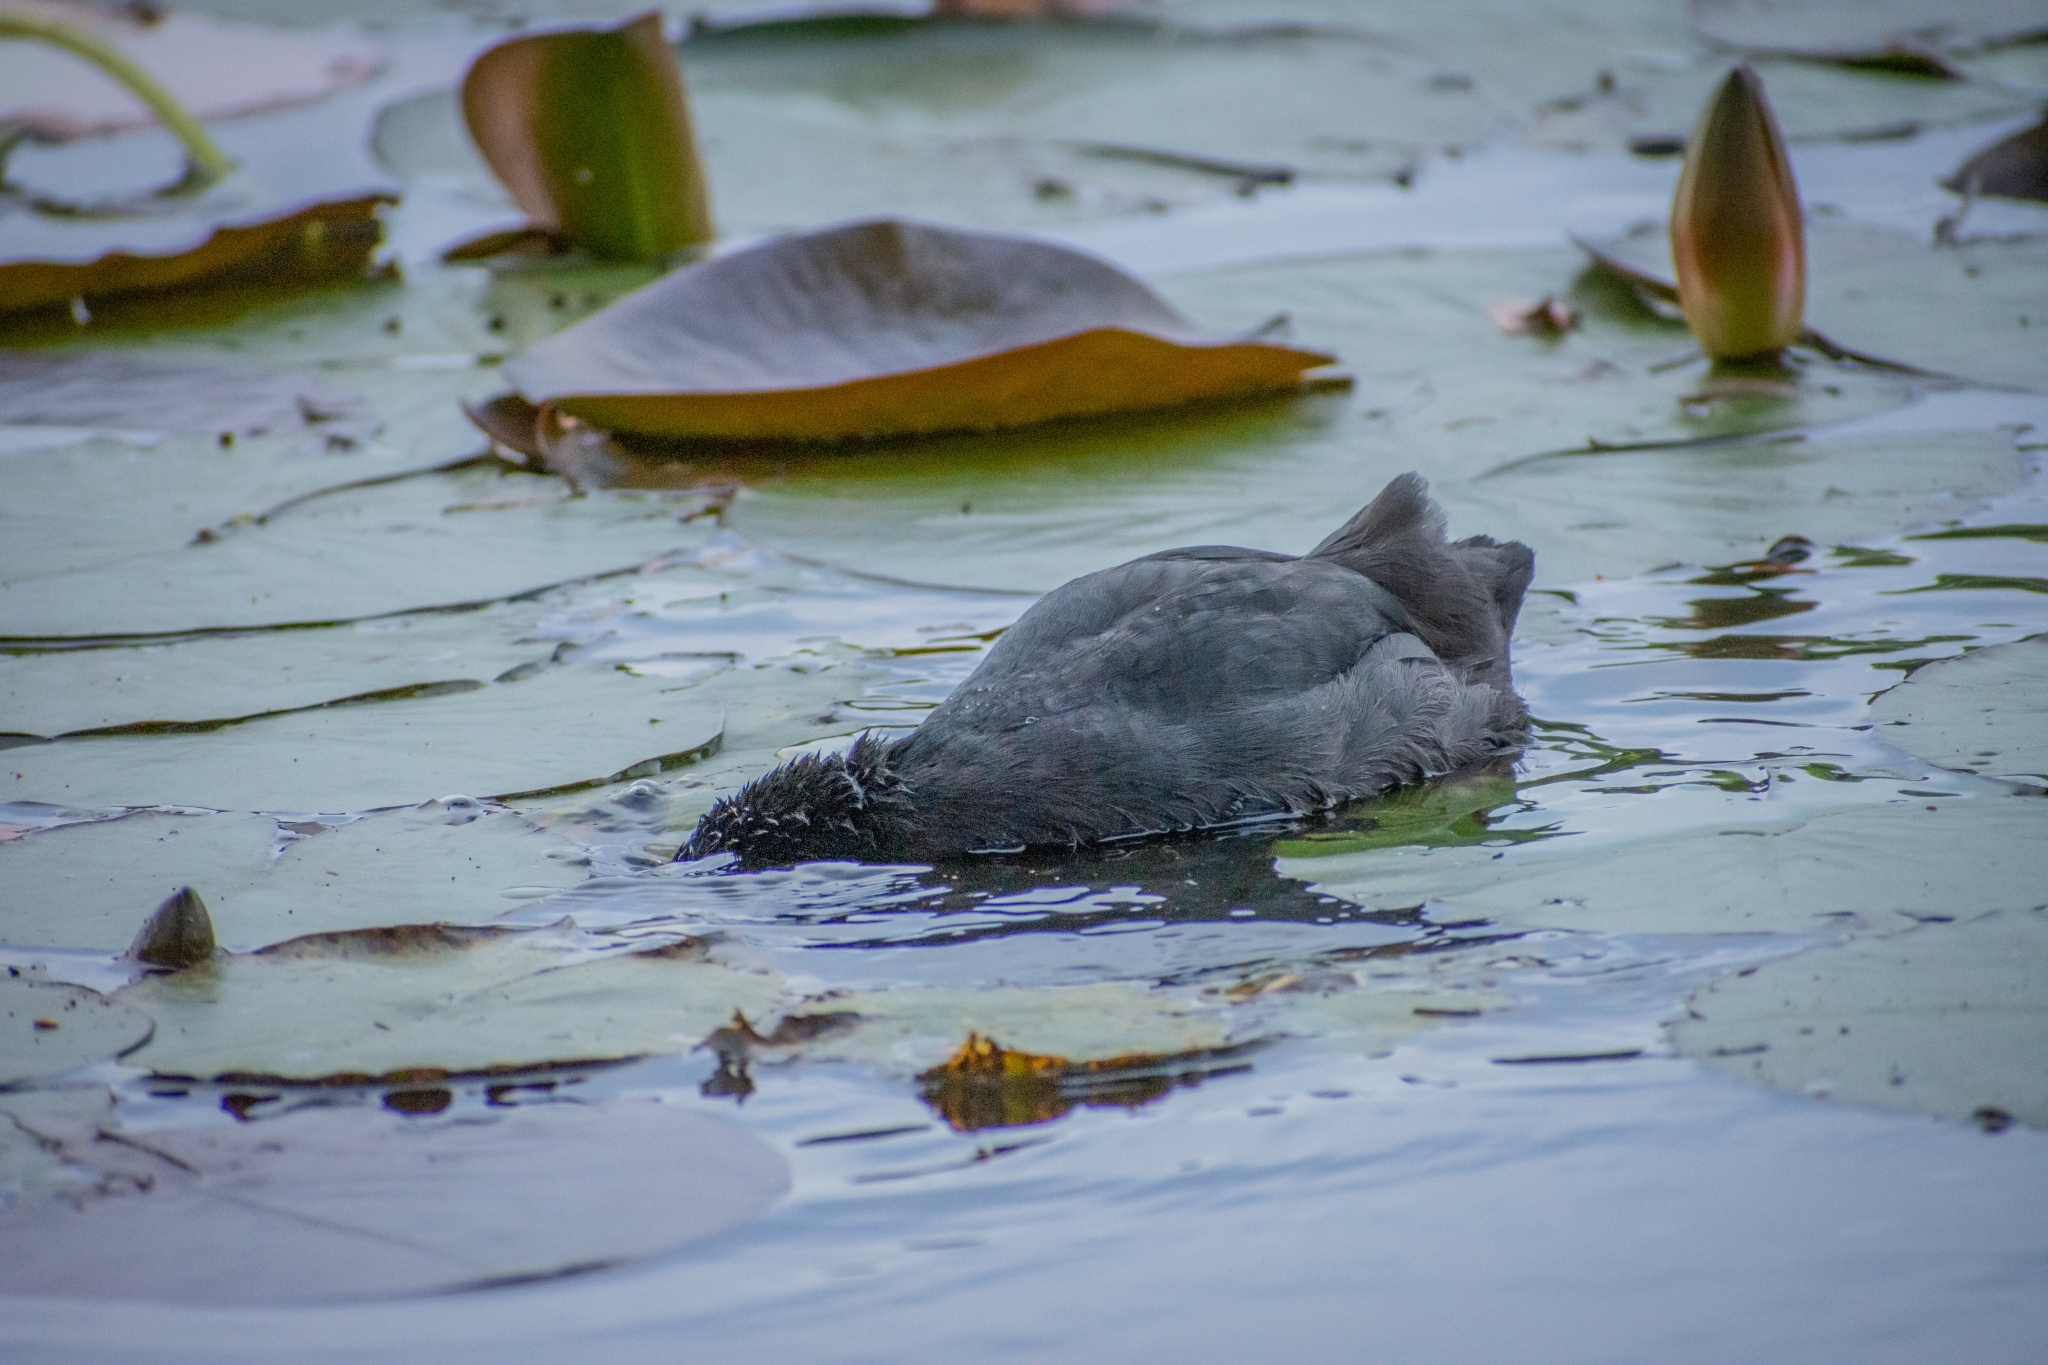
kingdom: Animalia
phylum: Chordata
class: Aves
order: Gruiformes
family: Rallidae
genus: Fulica
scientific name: Fulica atra
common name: Eurasian coot
